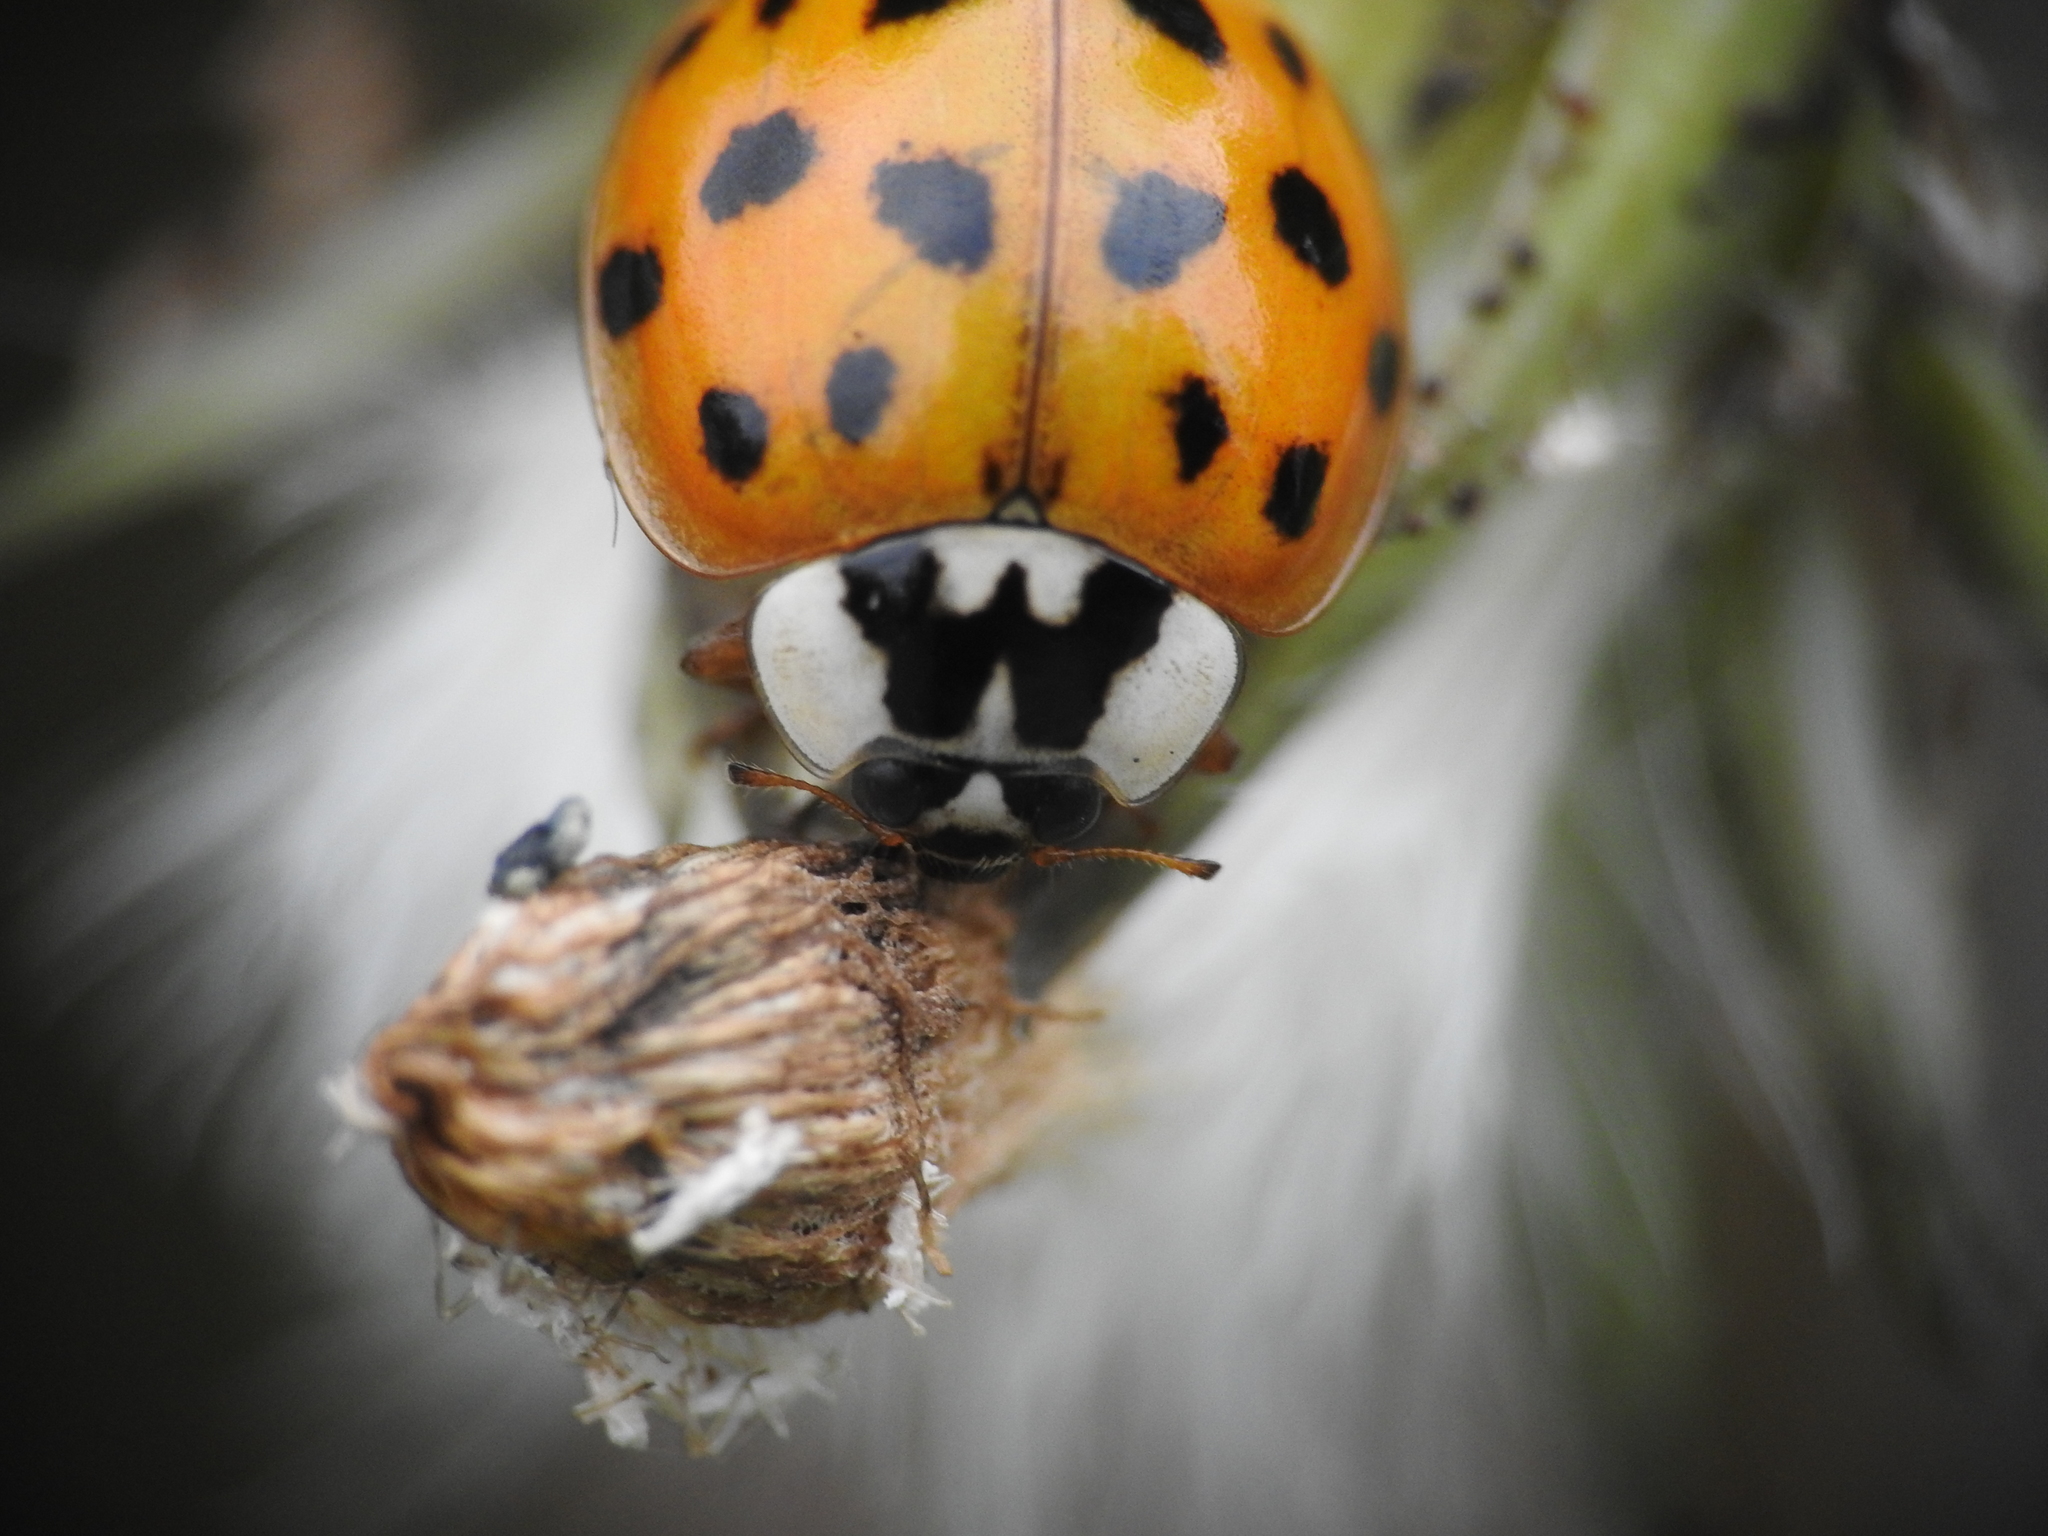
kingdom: Animalia
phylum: Arthropoda
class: Insecta
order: Coleoptera
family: Coccinellidae
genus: Harmonia
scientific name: Harmonia axyridis
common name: Harlequin ladybird
